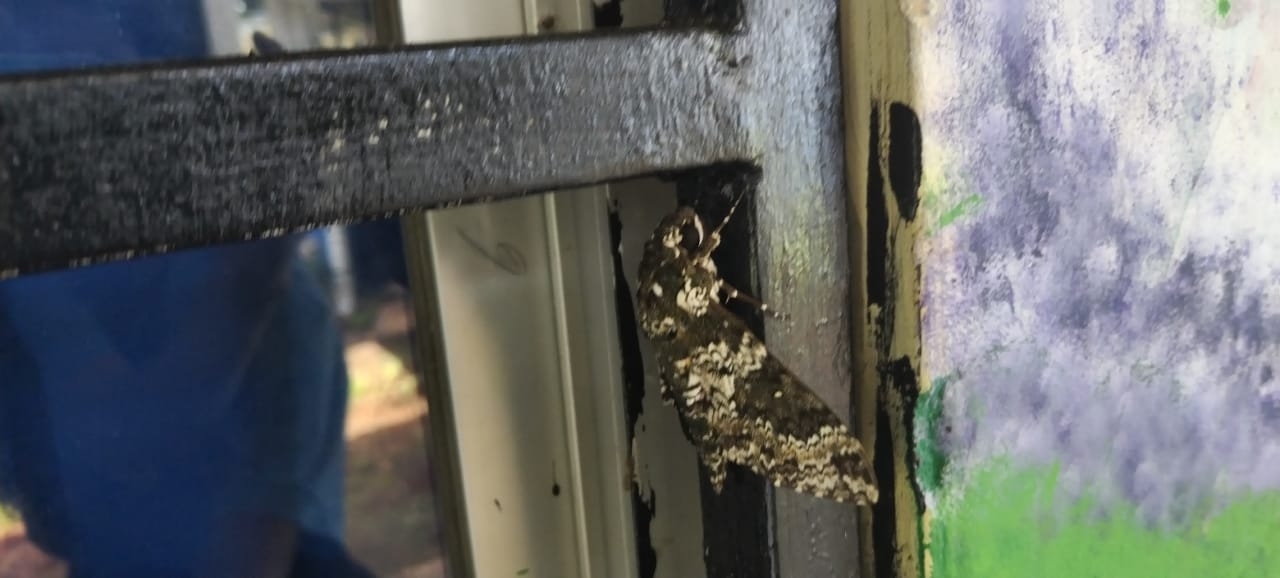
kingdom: Animalia
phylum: Arthropoda
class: Insecta
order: Lepidoptera
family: Sphingidae
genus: Manduca
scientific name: Manduca rustica
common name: Rustic sphinx
